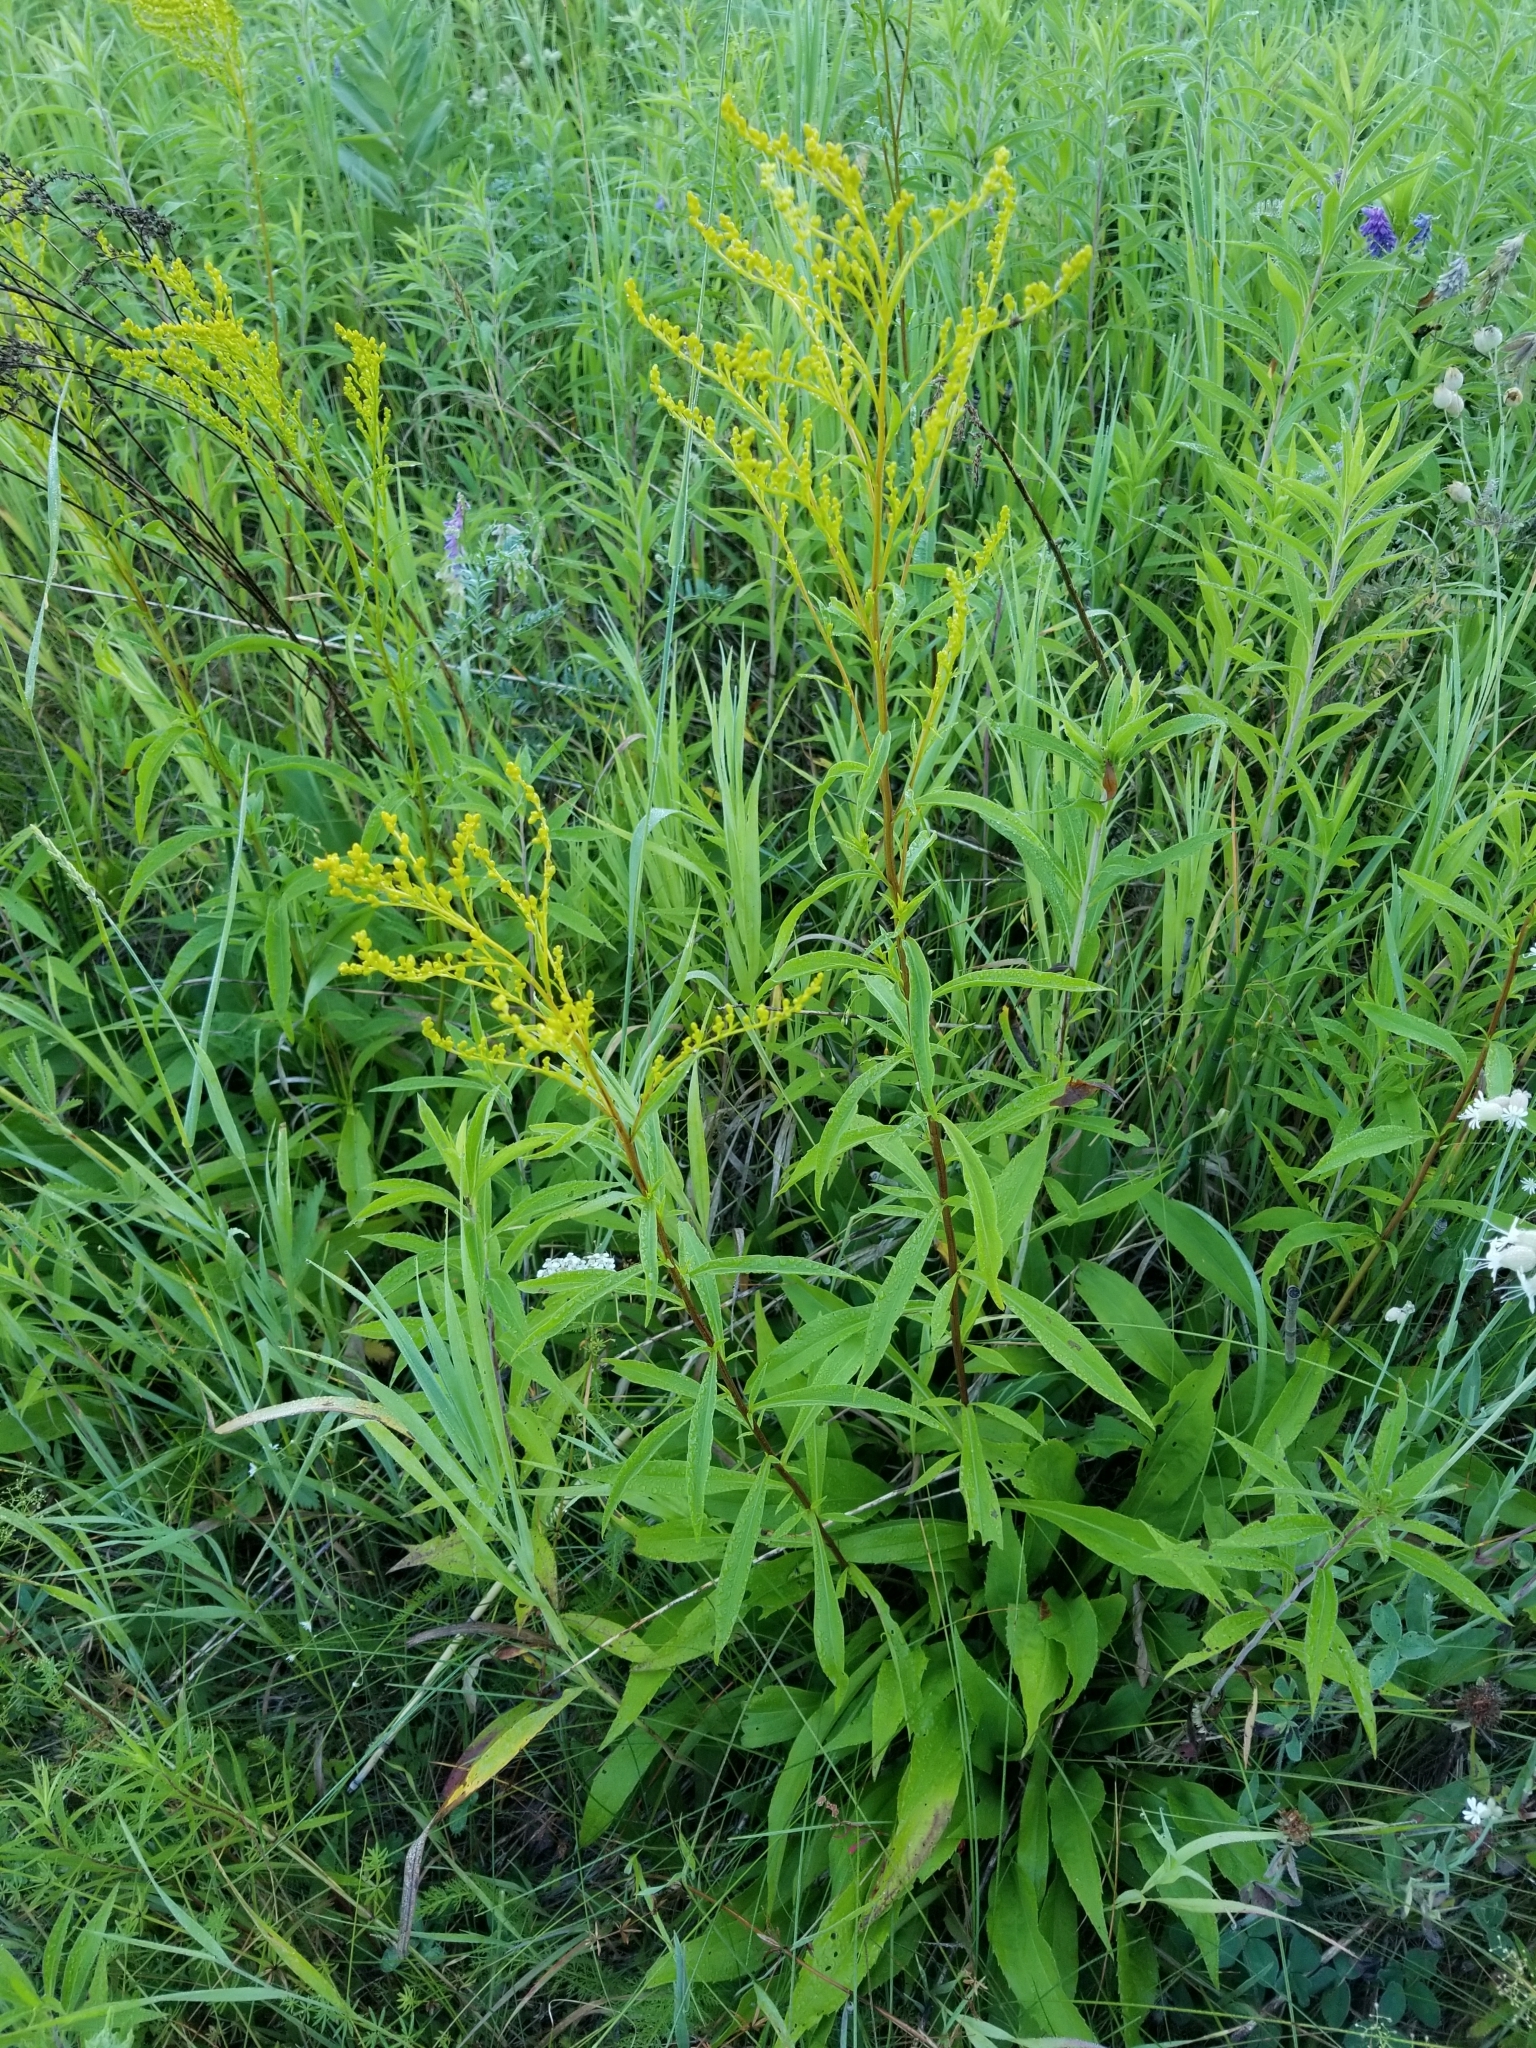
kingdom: Plantae
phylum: Tracheophyta
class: Magnoliopsida
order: Asterales
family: Asteraceae
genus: Solidago
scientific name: Solidago juncea
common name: Early goldenrod
